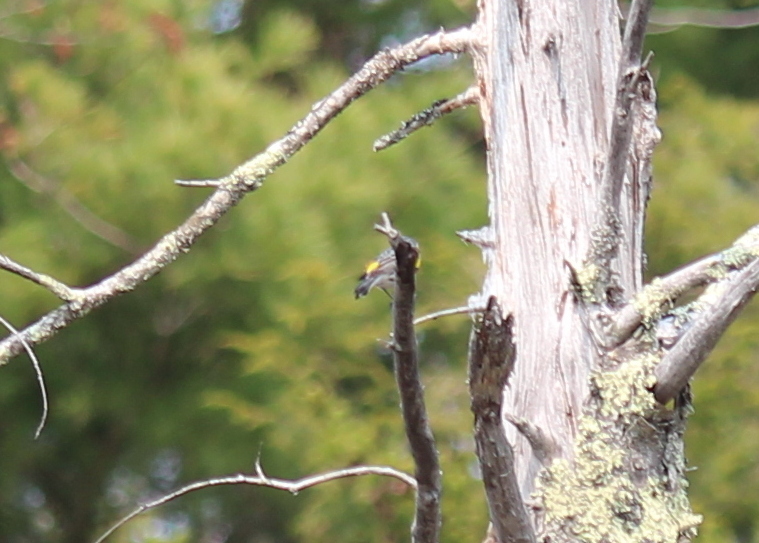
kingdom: Animalia
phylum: Chordata
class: Aves
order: Passeriformes
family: Parulidae
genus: Setophaga
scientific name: Setophaga coronata
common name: Myrtle warbler
